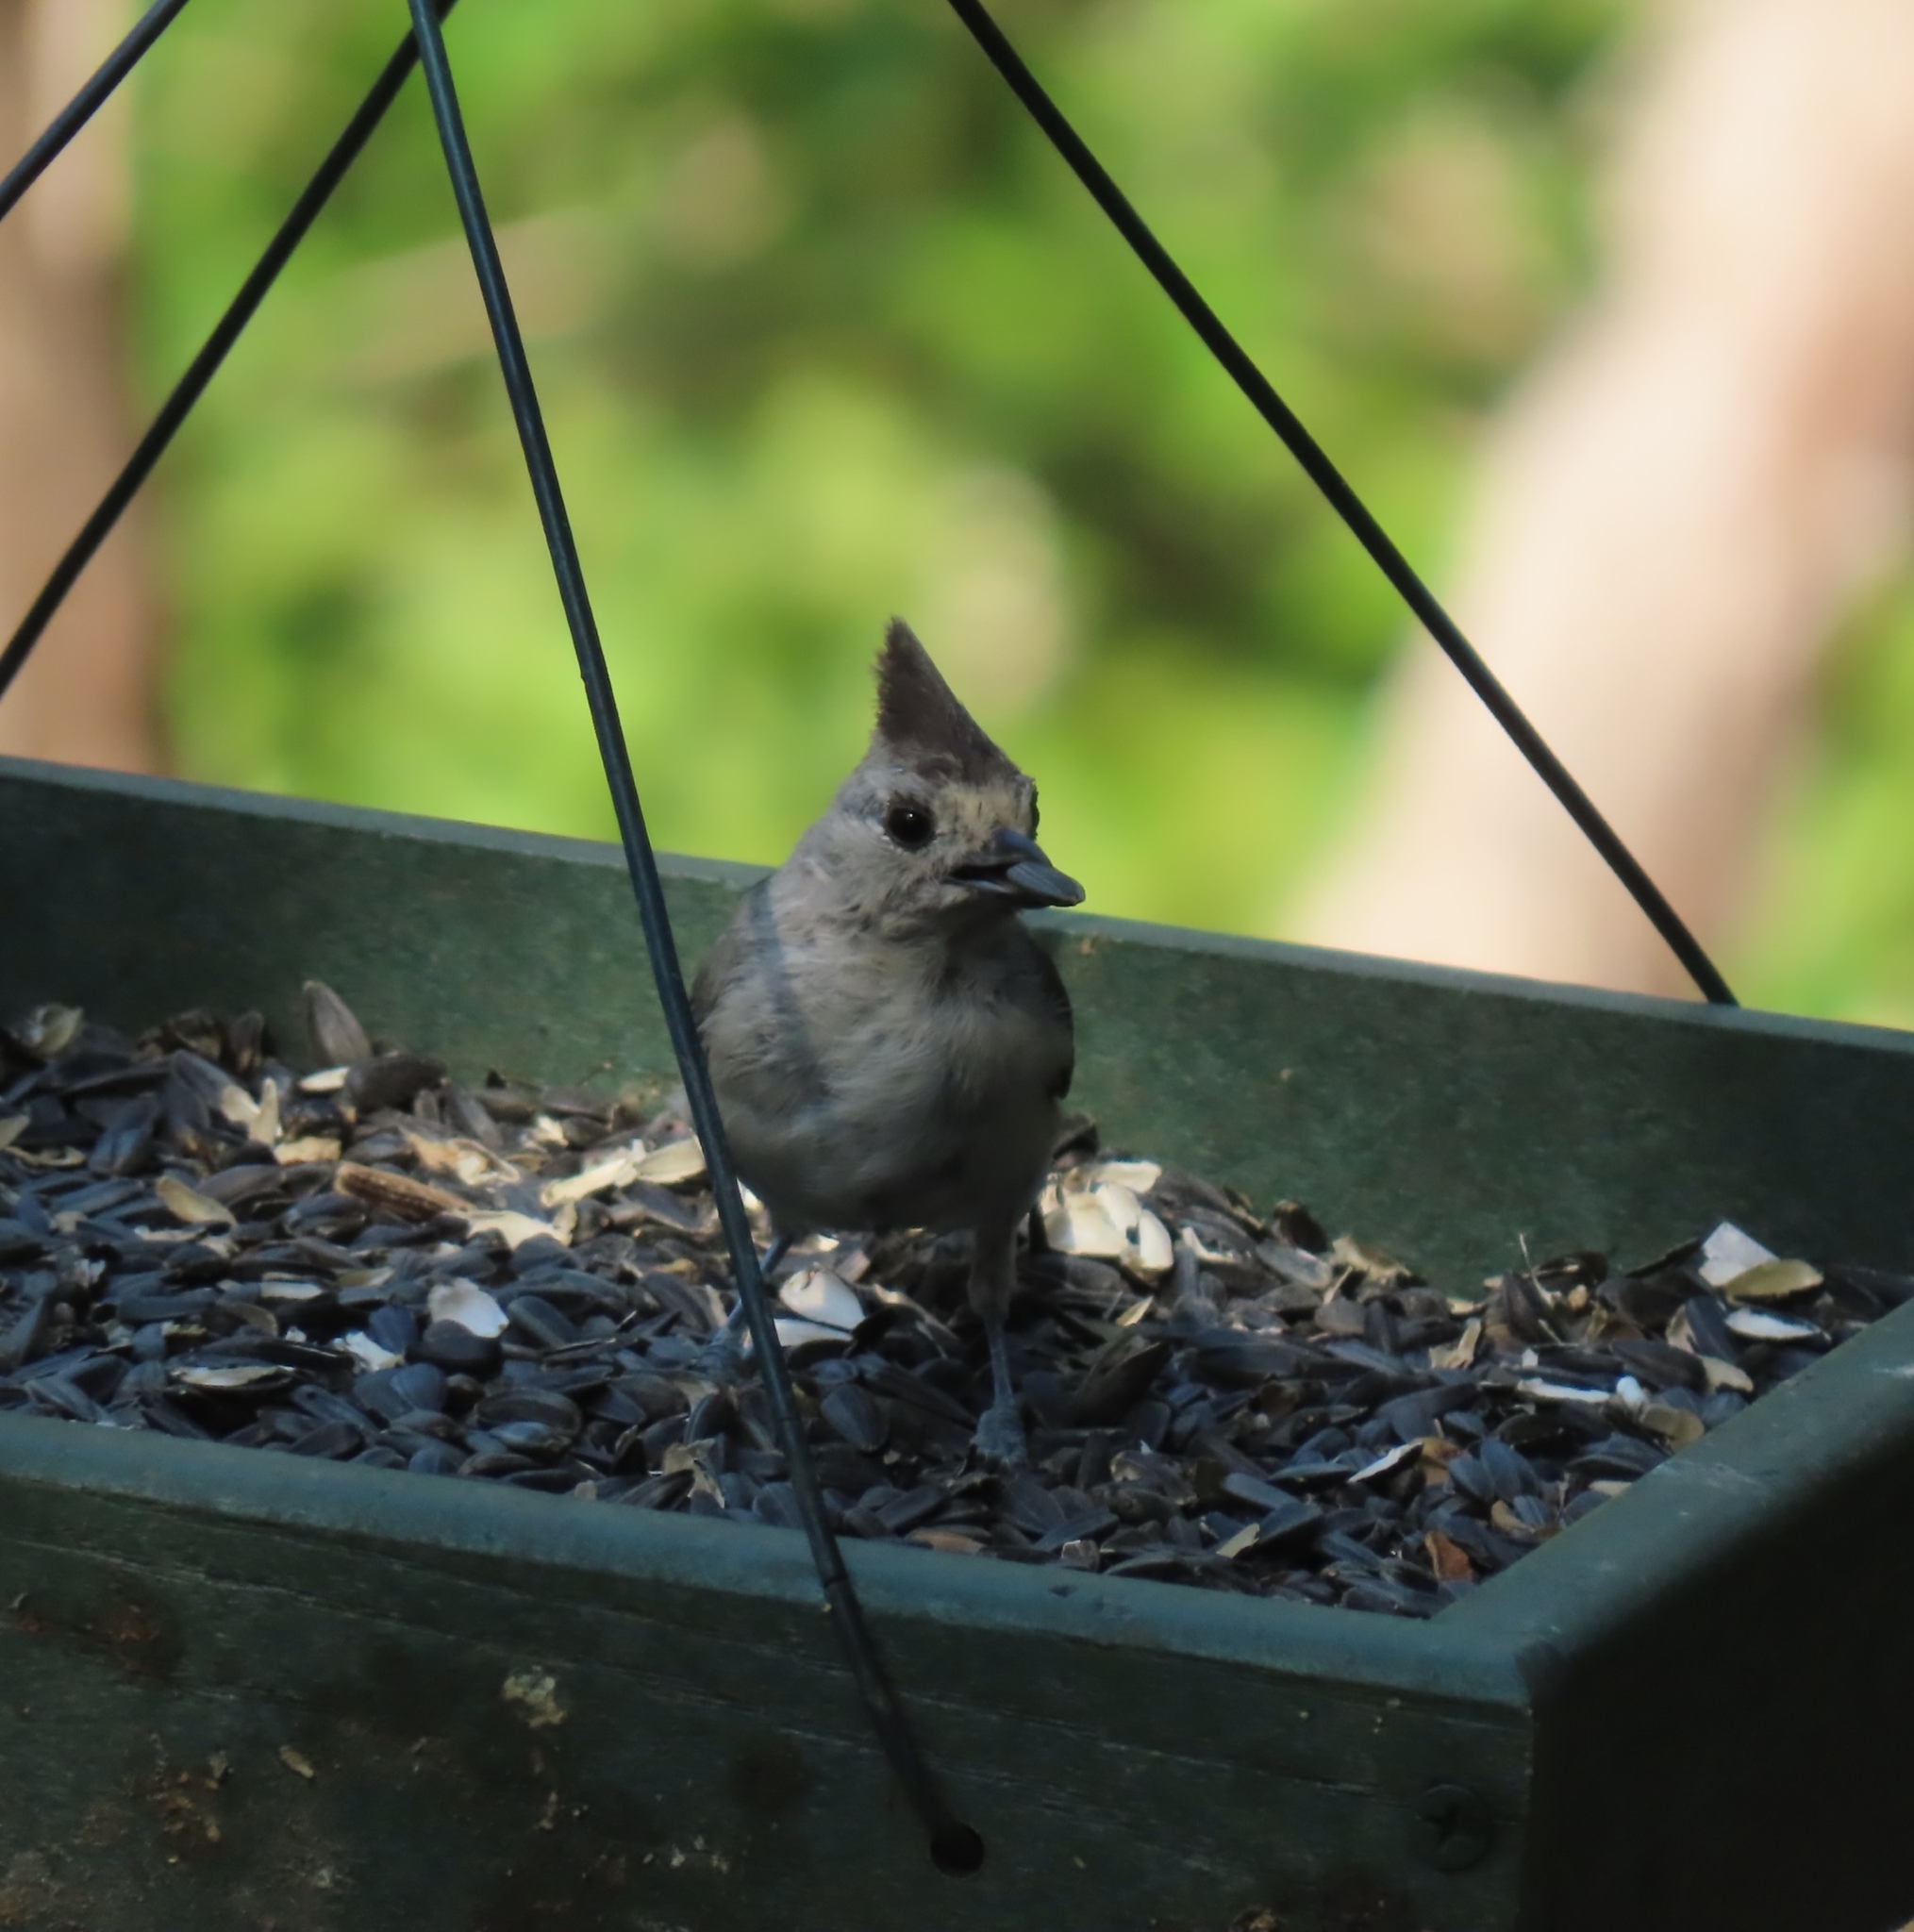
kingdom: Animalia
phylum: Chordata
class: Aves
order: Passeriformes
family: Paridae
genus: Baeolophus
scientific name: Baeolophus atricristatus
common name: Black-crested titmouse
